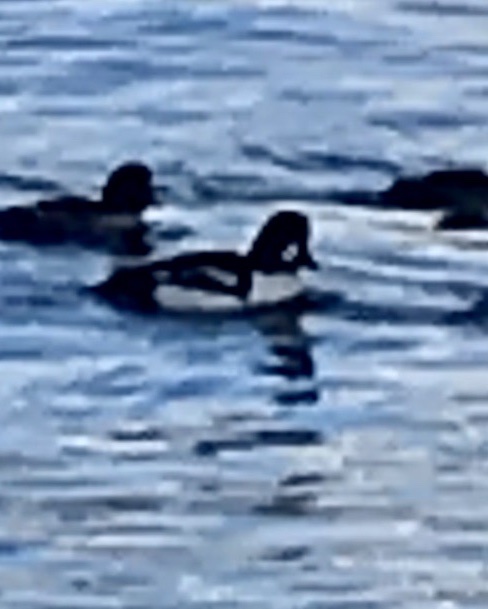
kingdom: Animalia
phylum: Chordata
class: Aves
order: Anseriformes
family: Anatidae
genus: Bucephala
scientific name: Bucephala islandica
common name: Barrow's goldeneye
